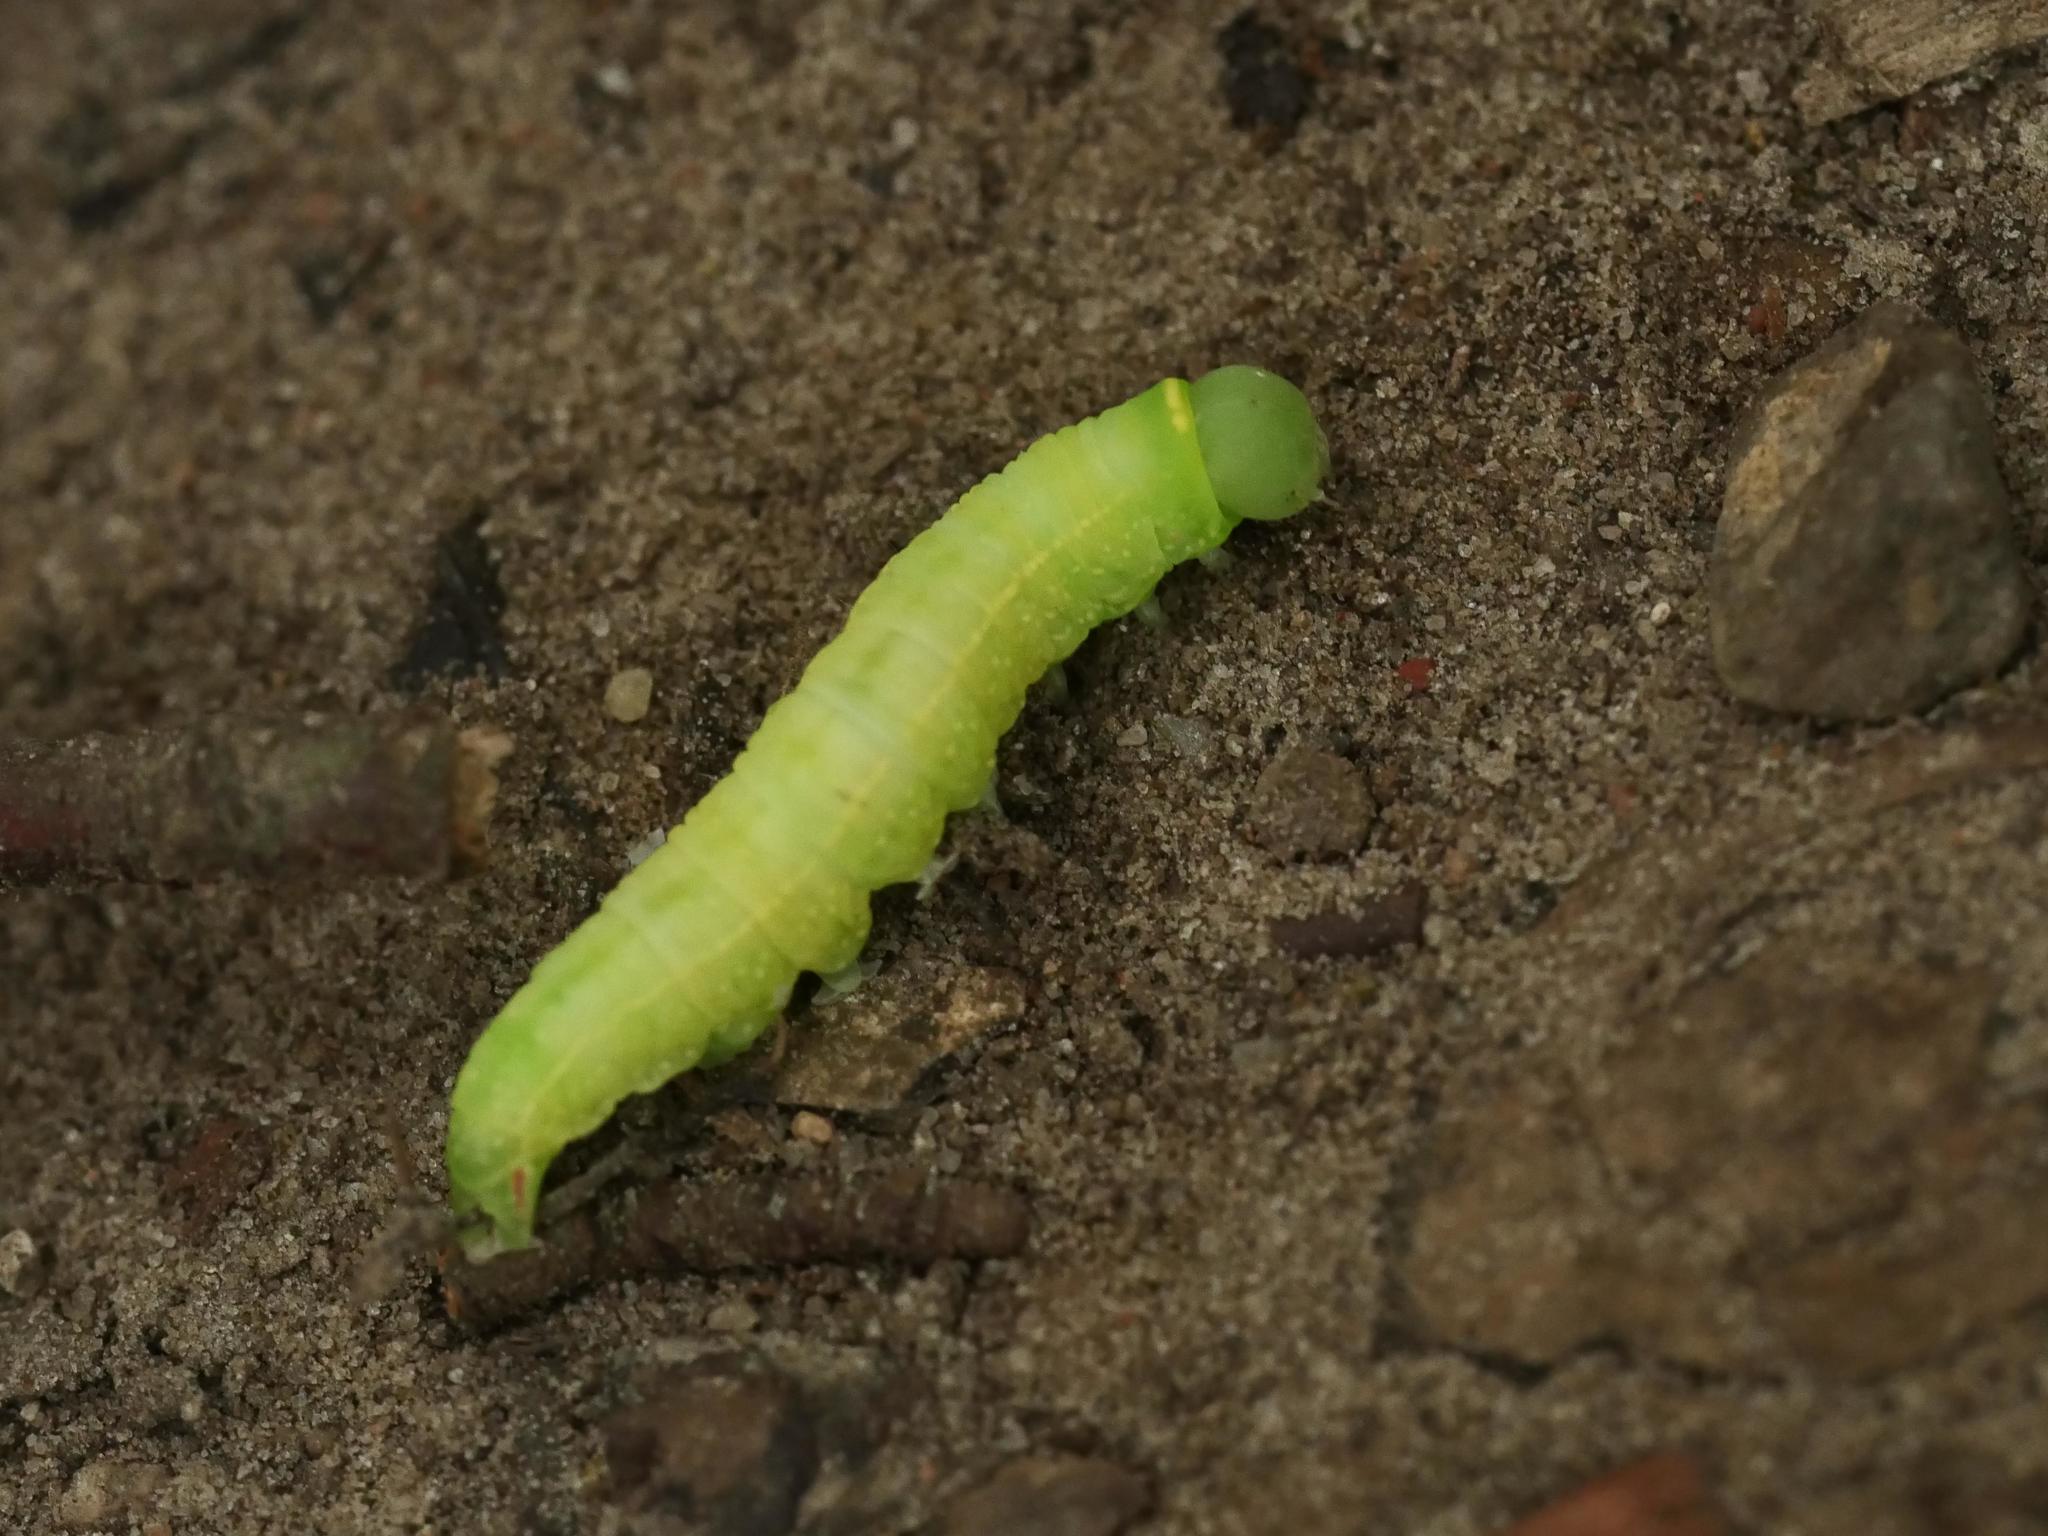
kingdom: Animalia
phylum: Arthropoda
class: Insecta
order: Lepidoptera
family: Nolidae
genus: Pseudoips
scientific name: Pseudoips prasinana
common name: Green silver-lines
